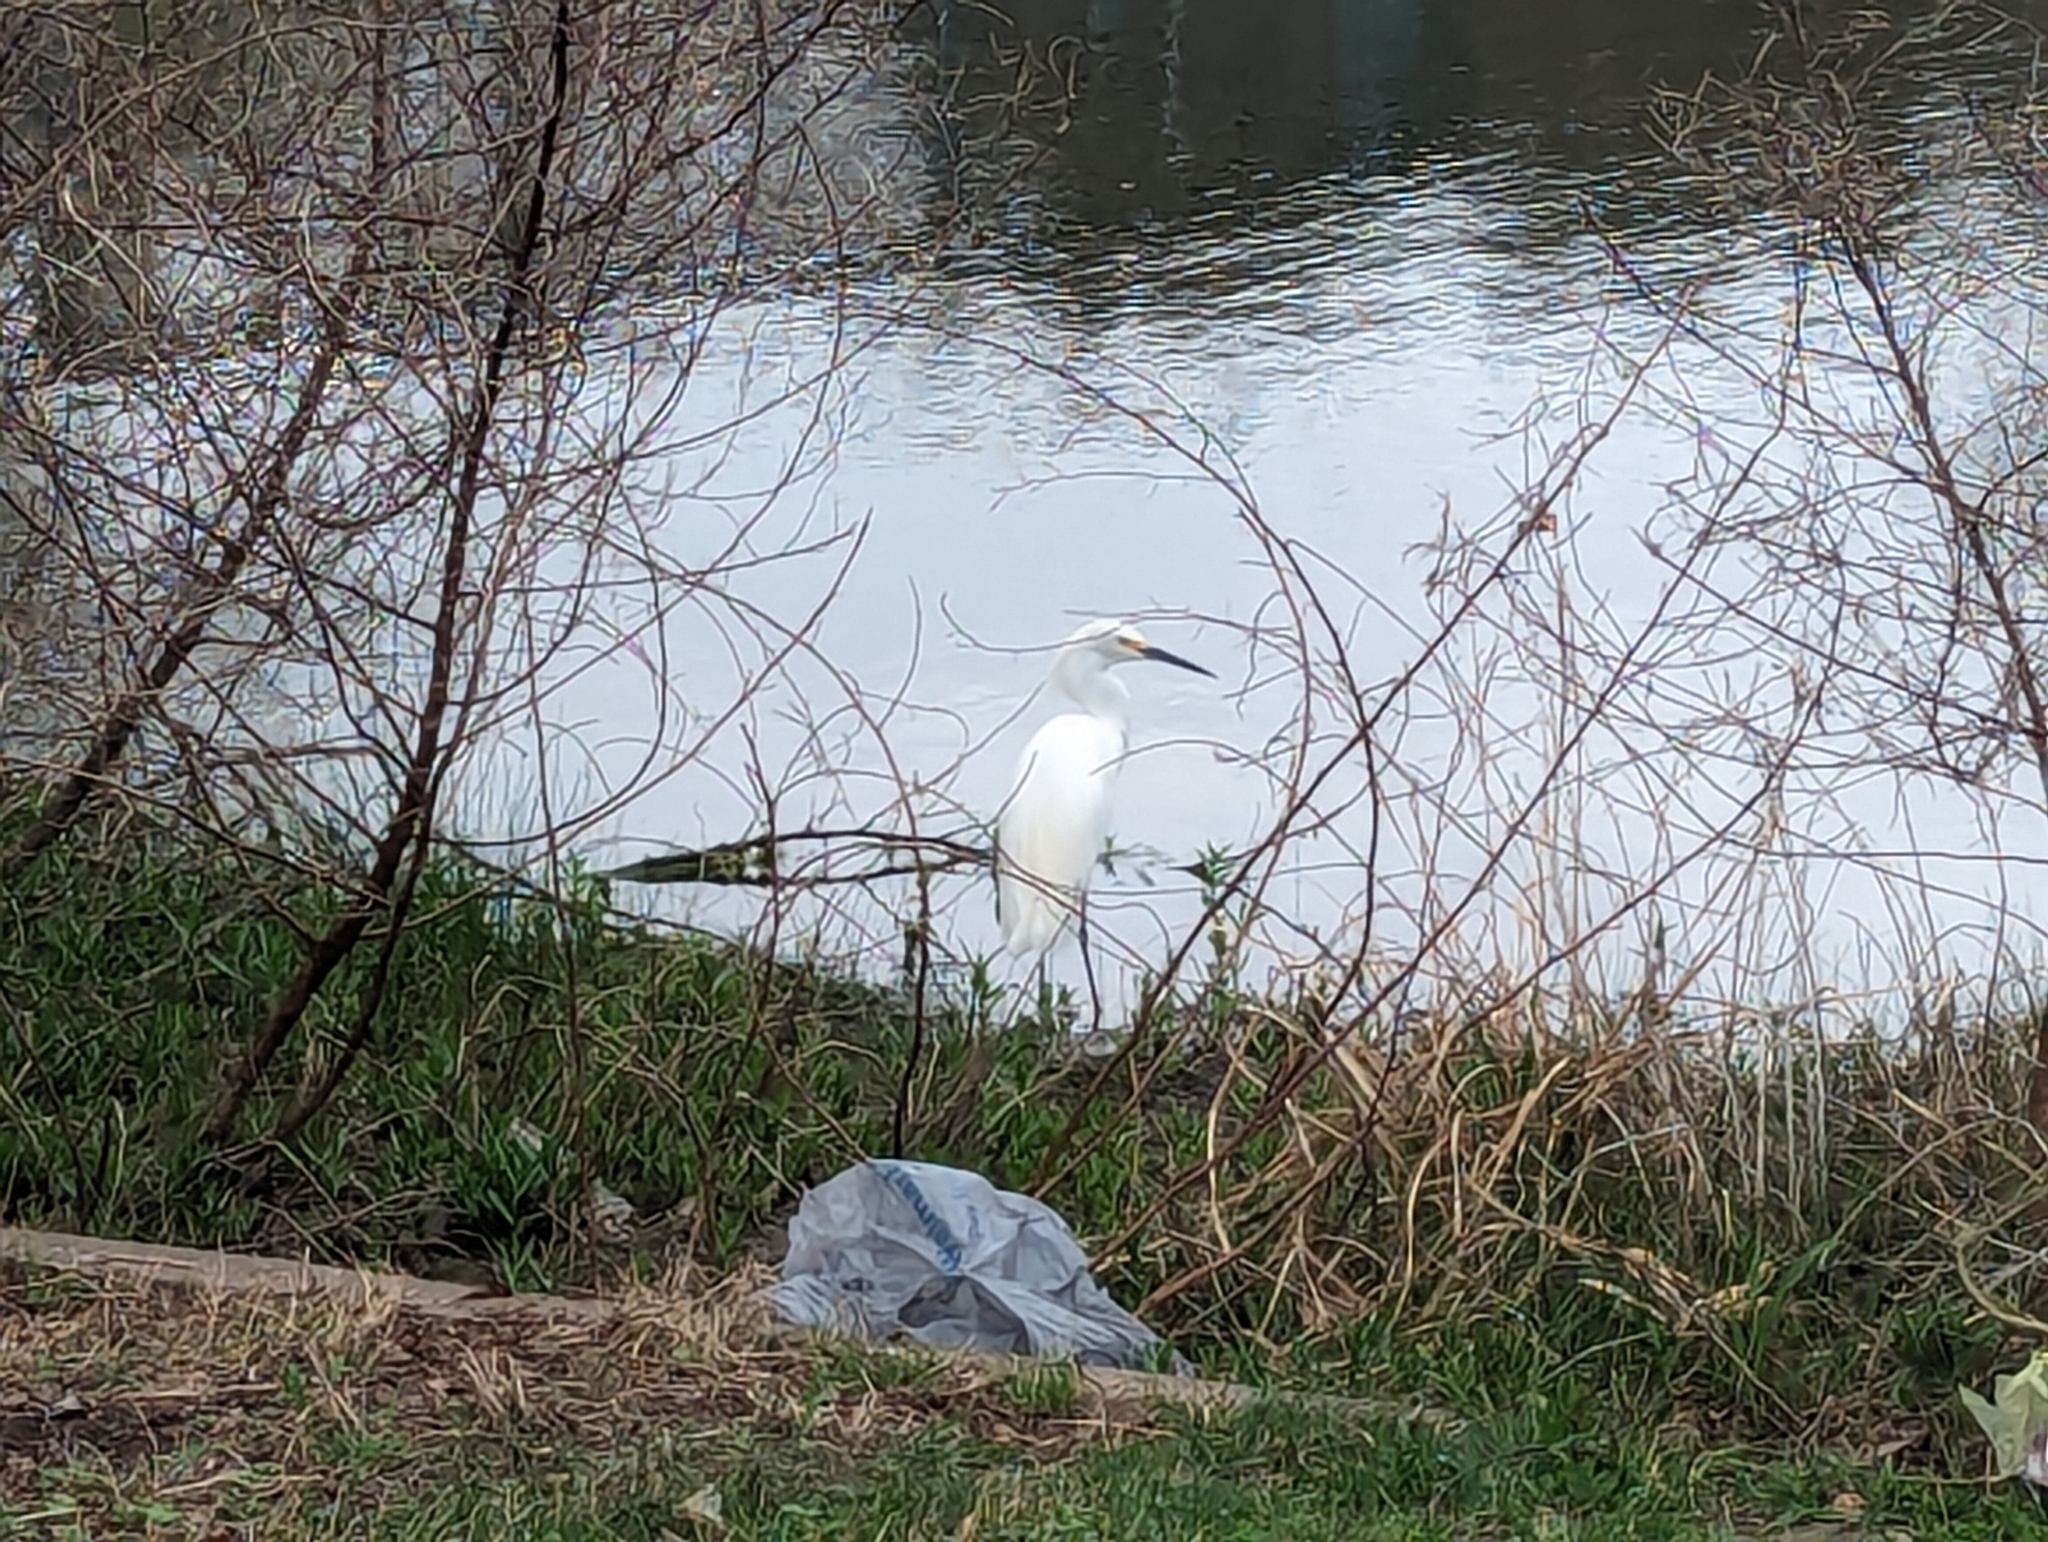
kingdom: Animalia
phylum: Chordata
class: Aves
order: Pelecaniformes
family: Ardeidae
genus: Egretta
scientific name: Egretta thula
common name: Snowy egret
